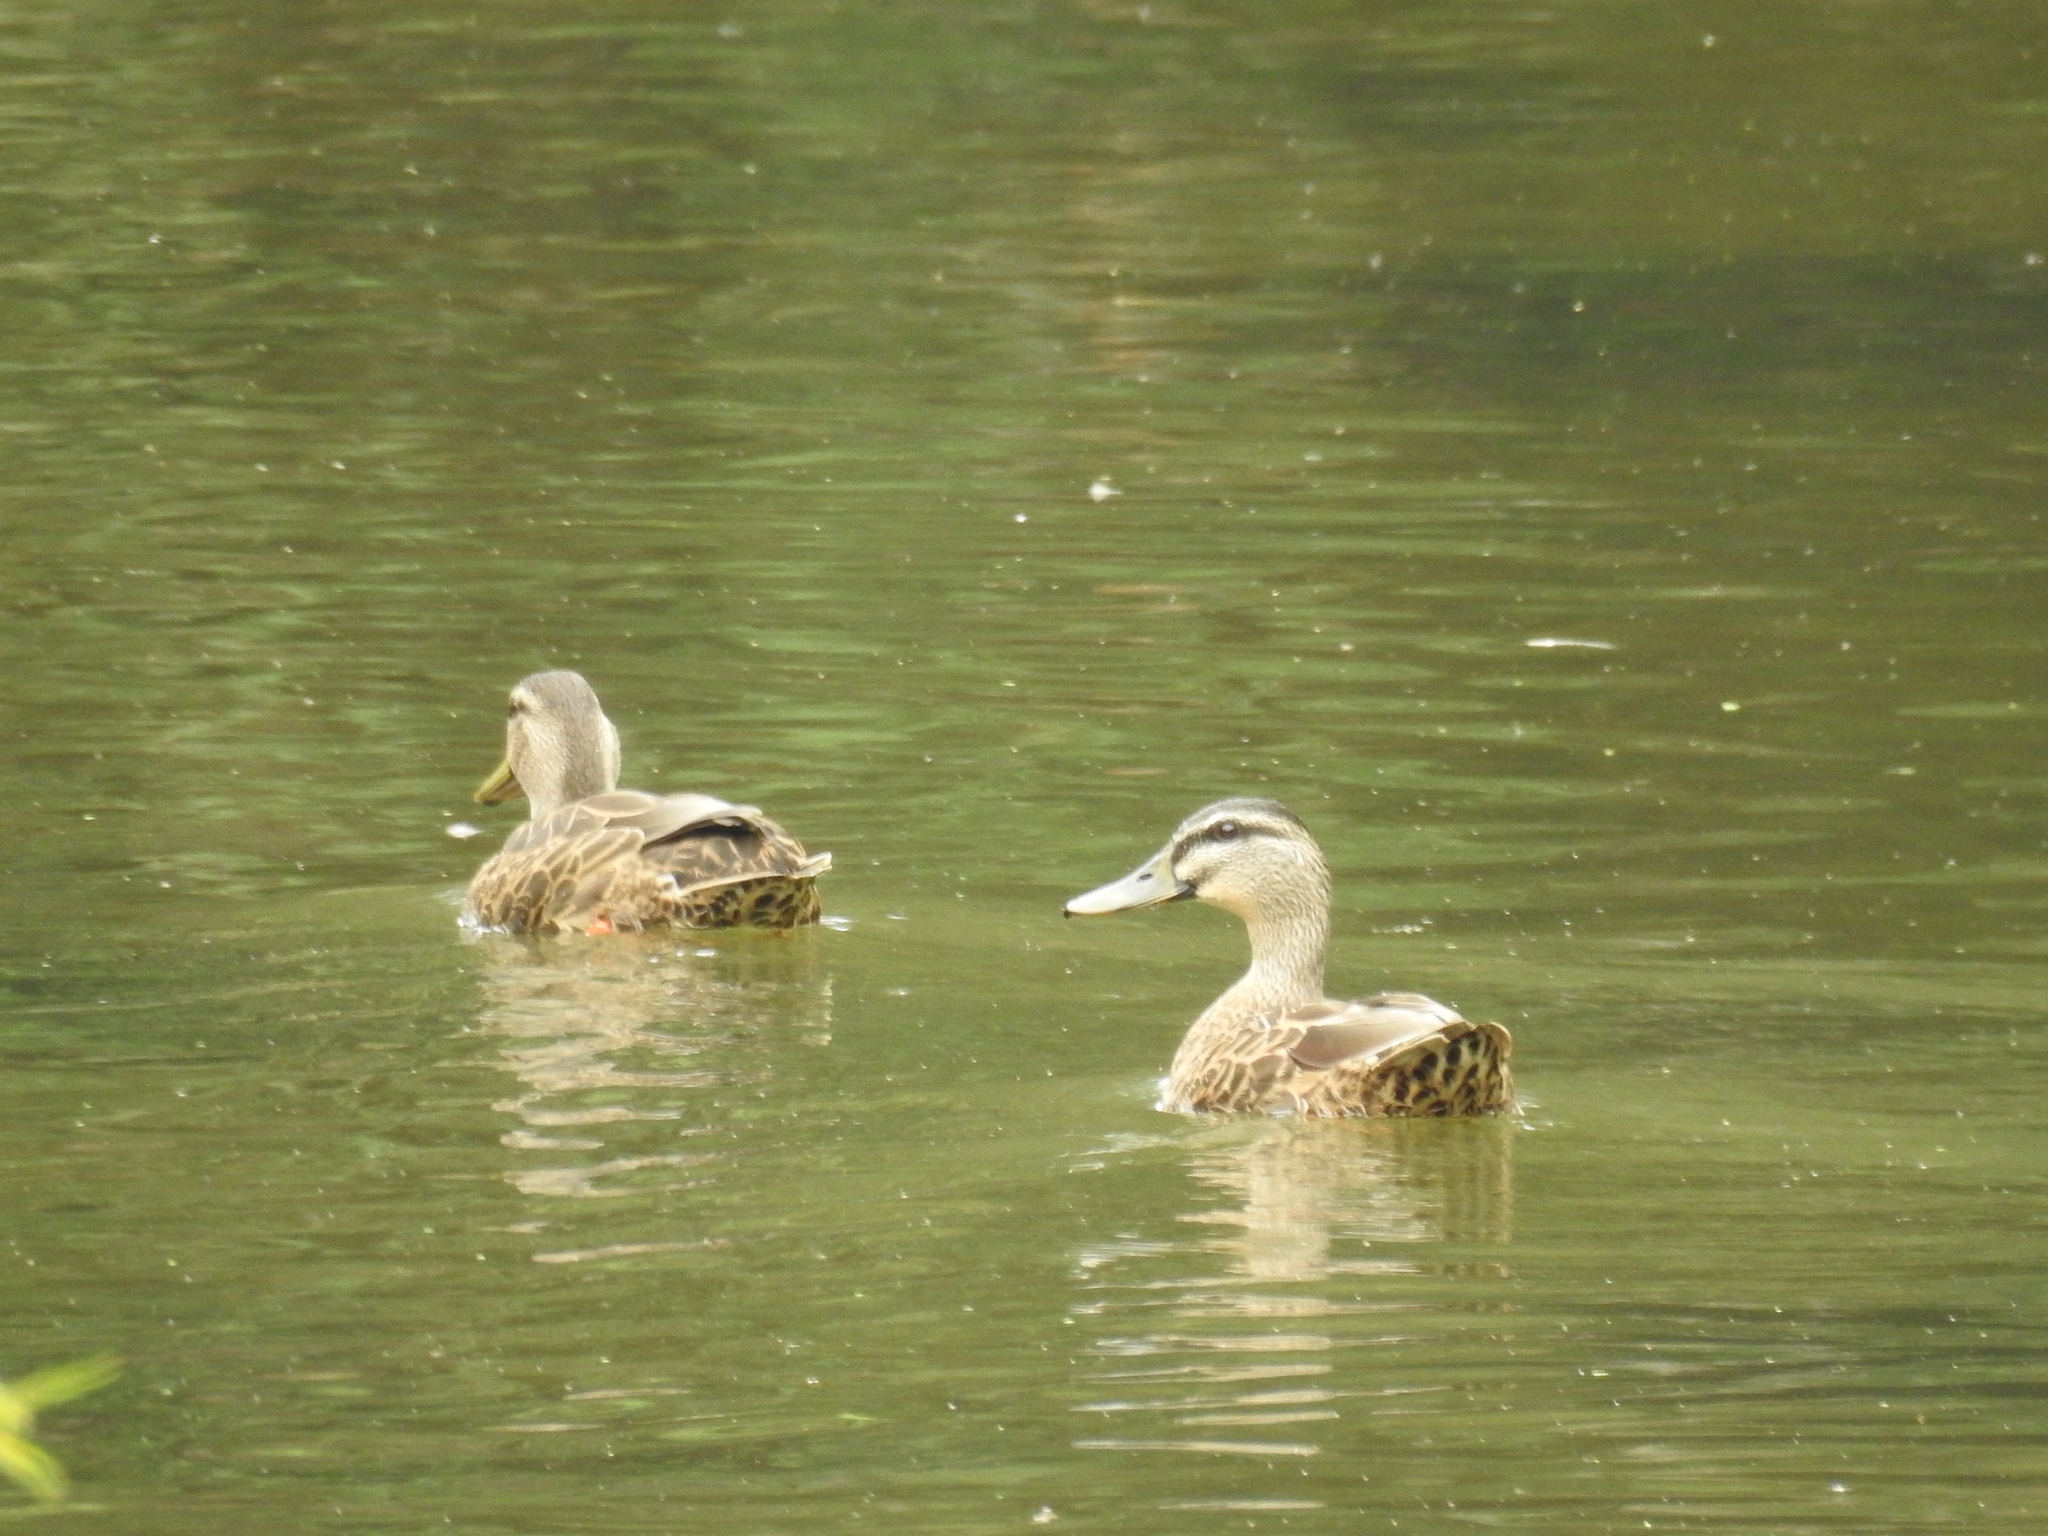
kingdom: Animalia
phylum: Chordata
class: Aves
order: Anseriformes
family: Anatidae
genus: Anas
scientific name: Anas
